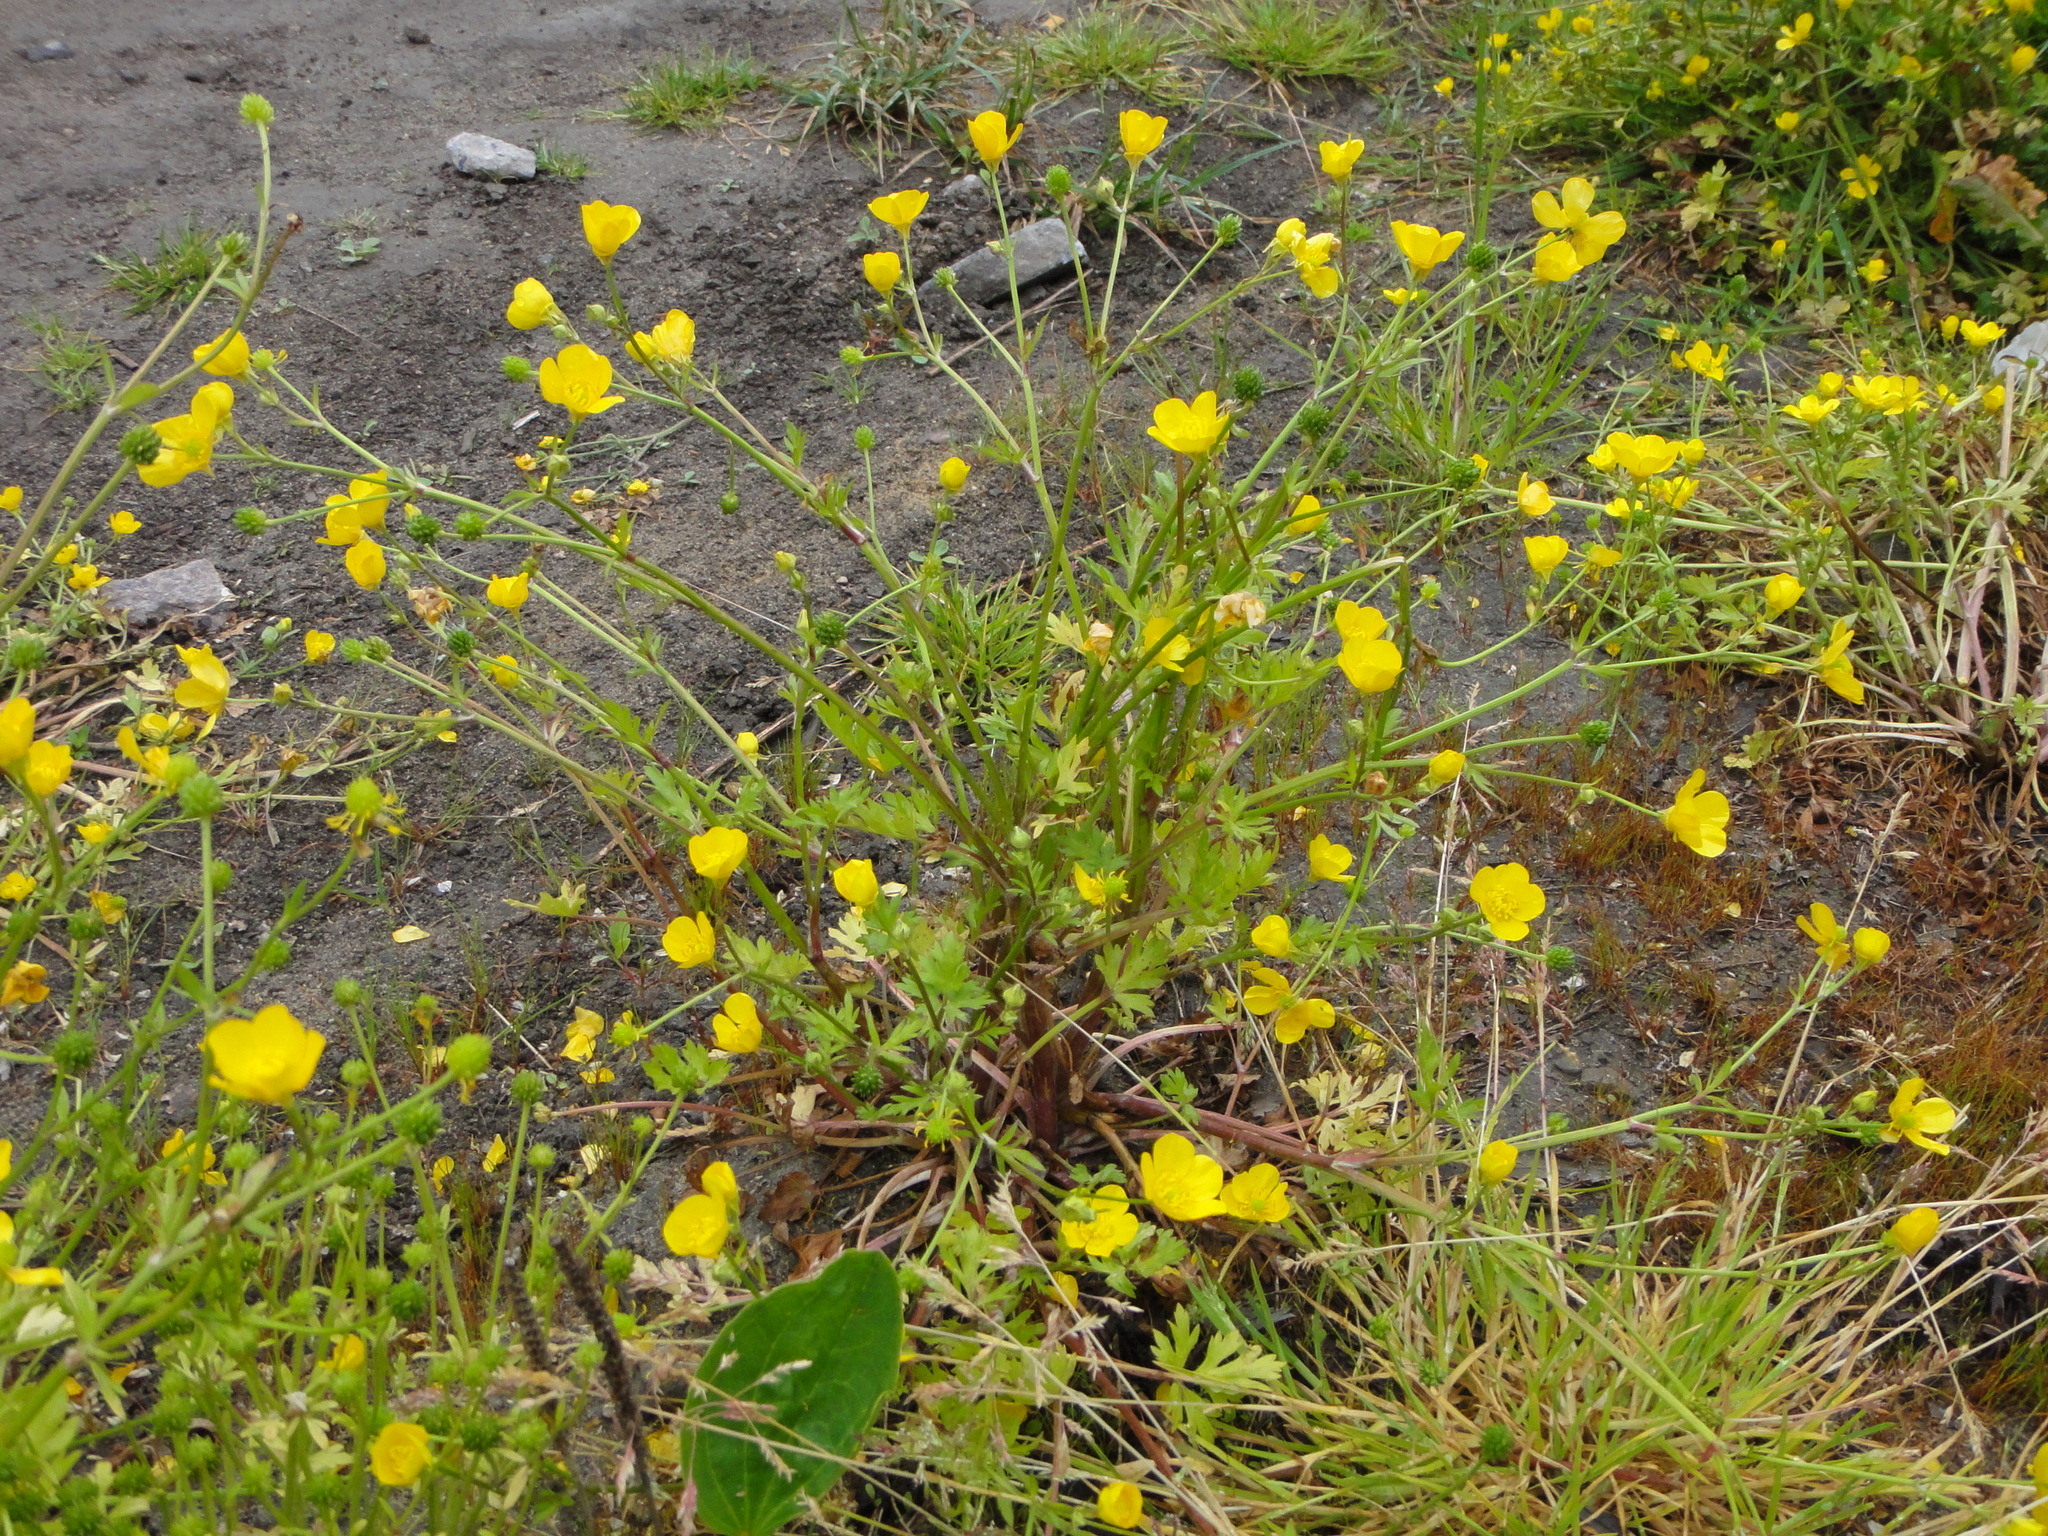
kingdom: Plantae
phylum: Tracheophyta
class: Magnoliopsida
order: Ranunculales
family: Ranunculaceae
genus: Ranunculus
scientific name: Ranunculus sardous
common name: Hairy buttercup
